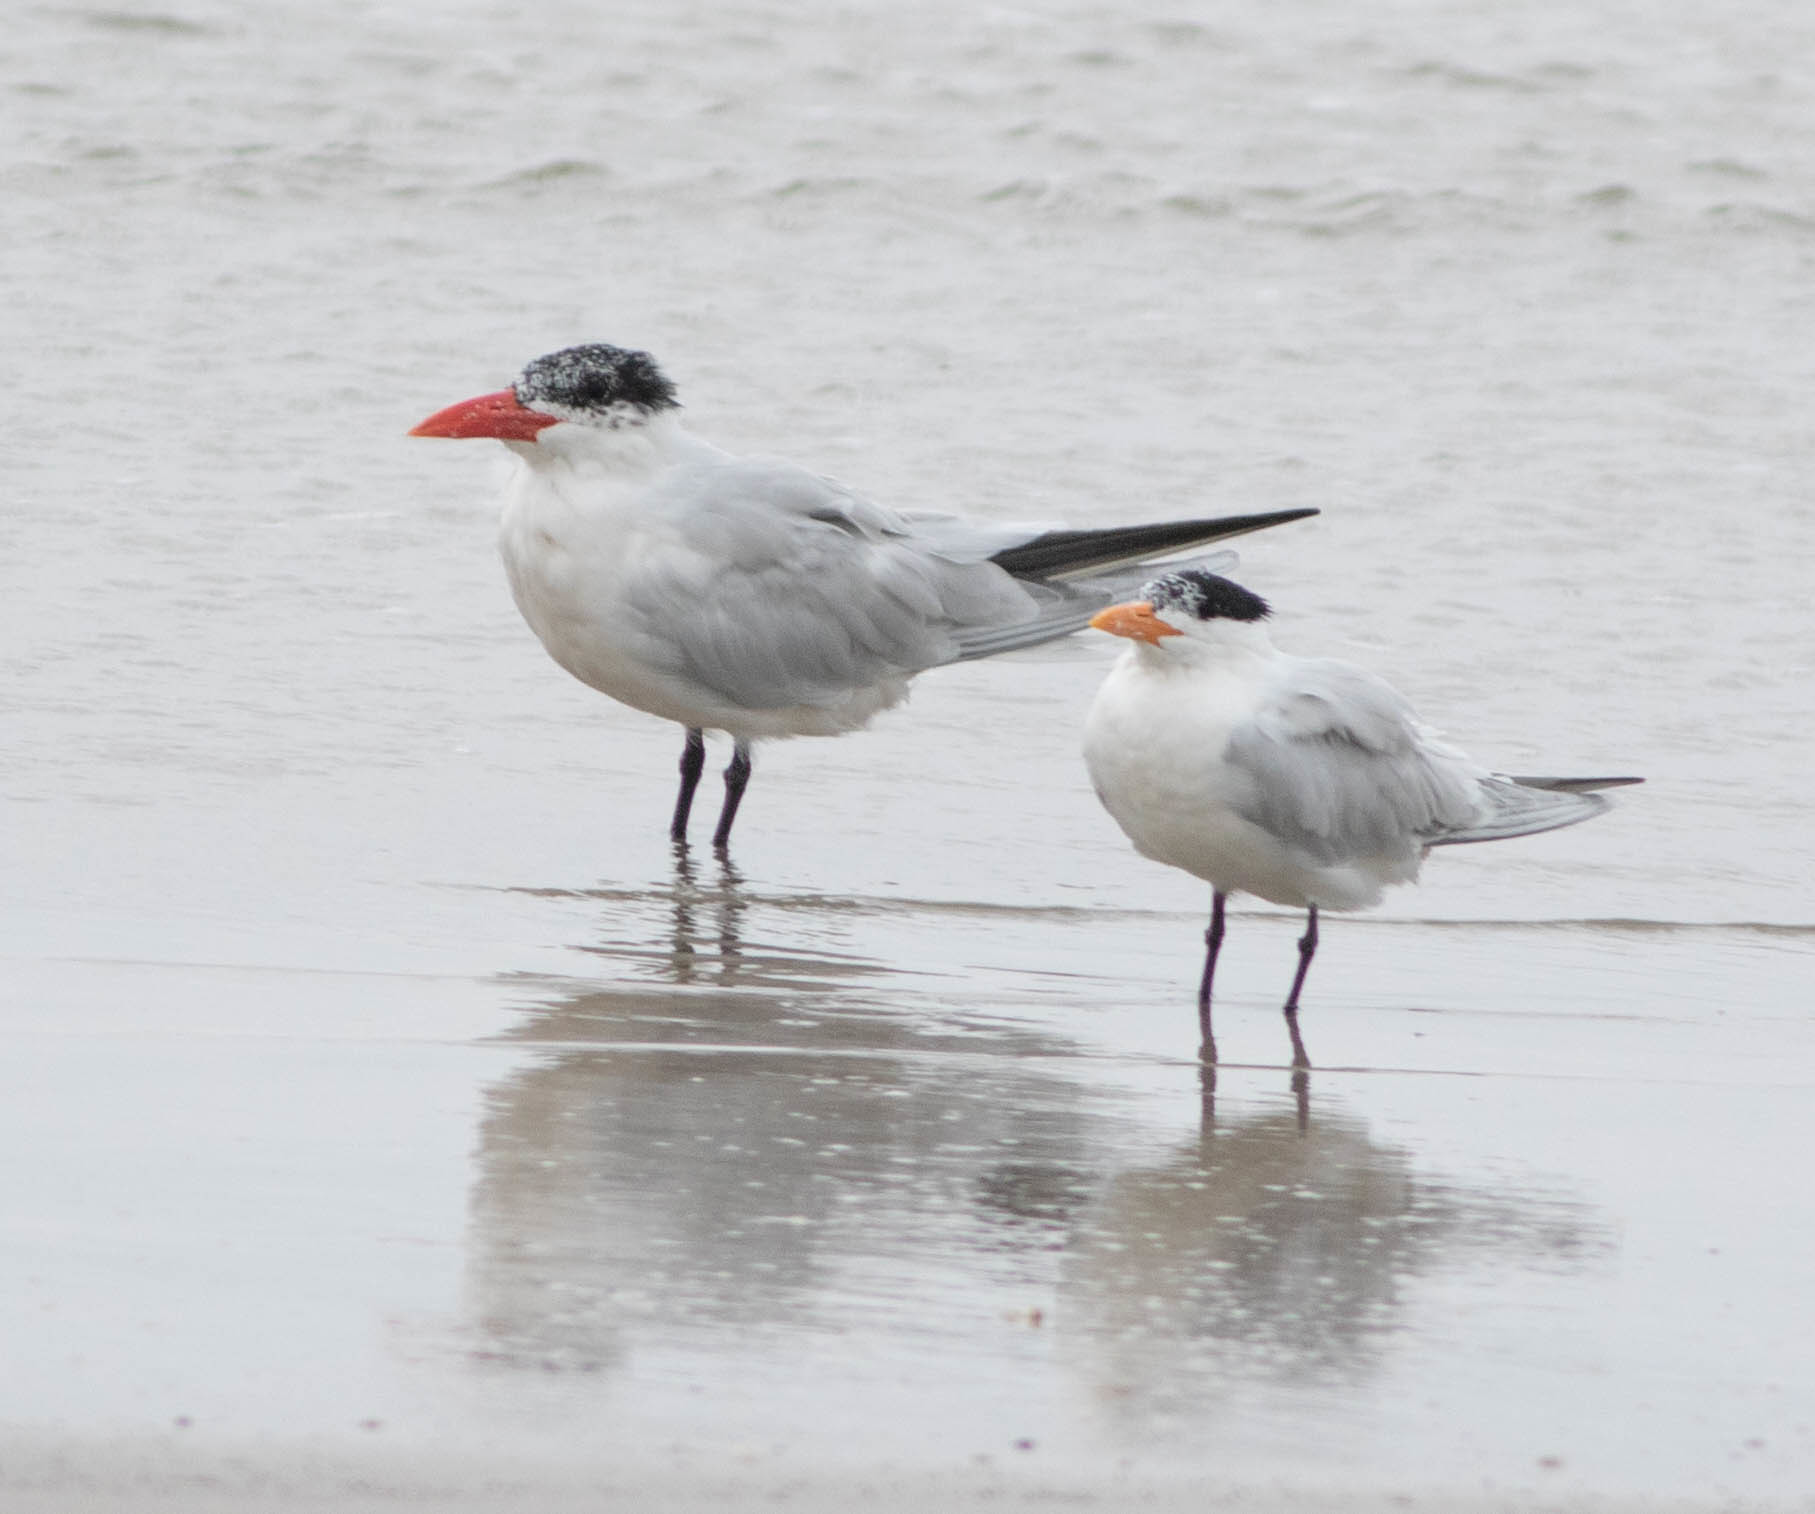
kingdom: Animalia
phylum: Chordata
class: Aves
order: Charadriiformes
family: Laridae
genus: Hydroprogne
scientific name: Hydroprogne caspia
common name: Caspian tern
